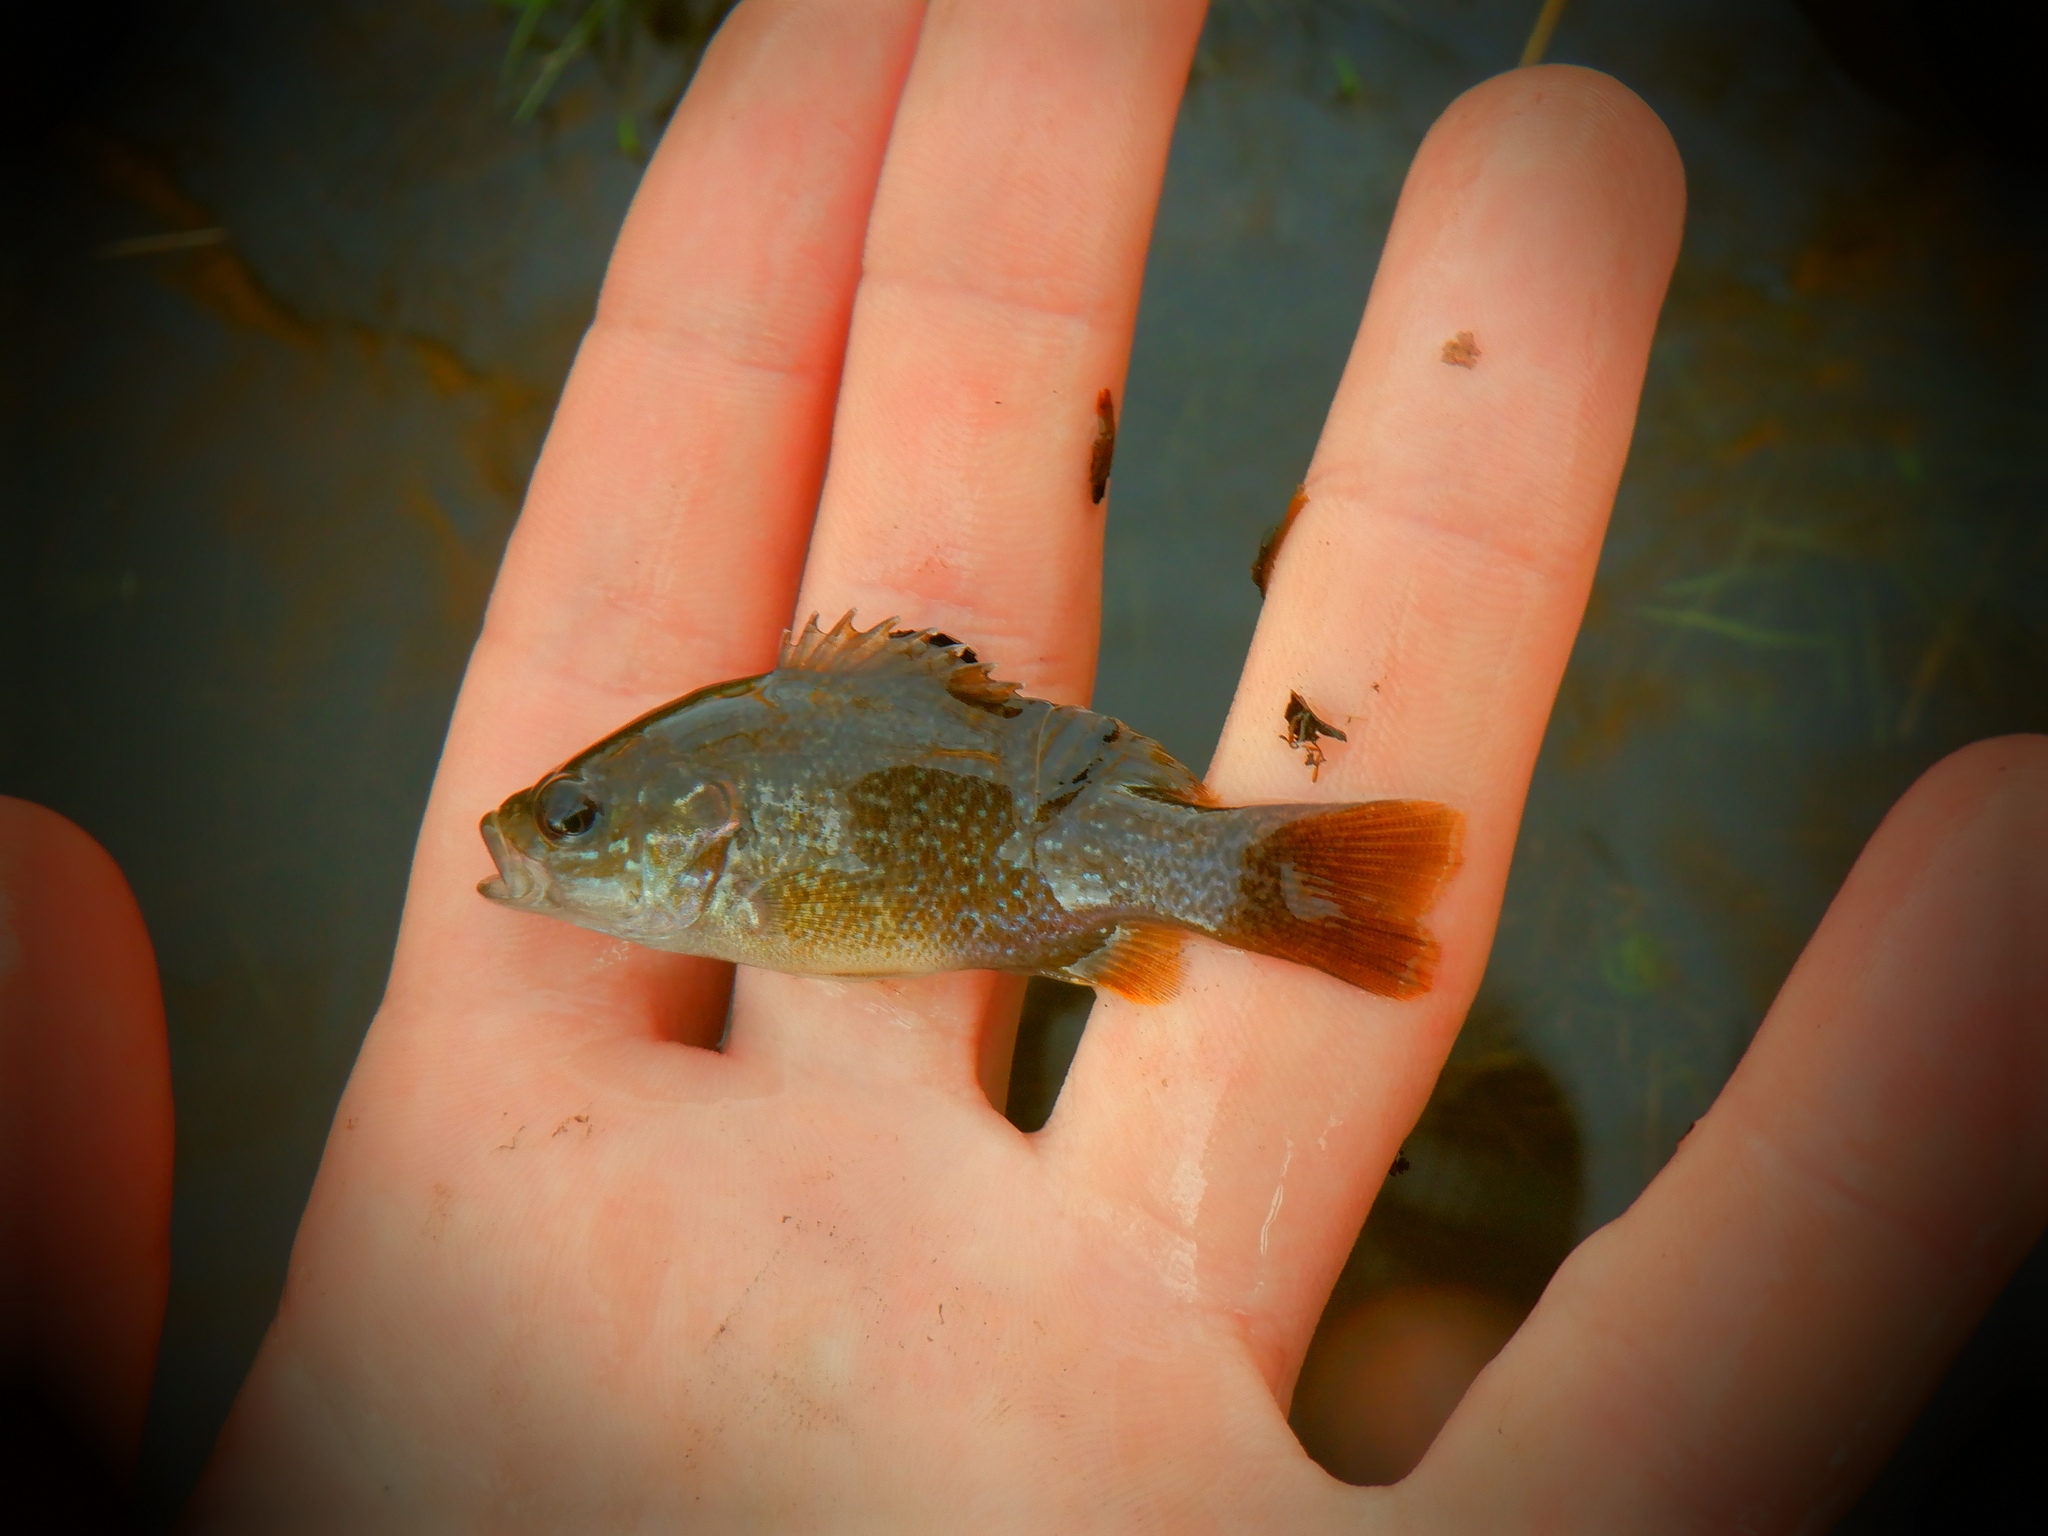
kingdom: Animalia
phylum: Chordata
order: Perciformes
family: Centrarchidae
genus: Lepomis
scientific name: Lepomis cyanellus
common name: Green sunfish
